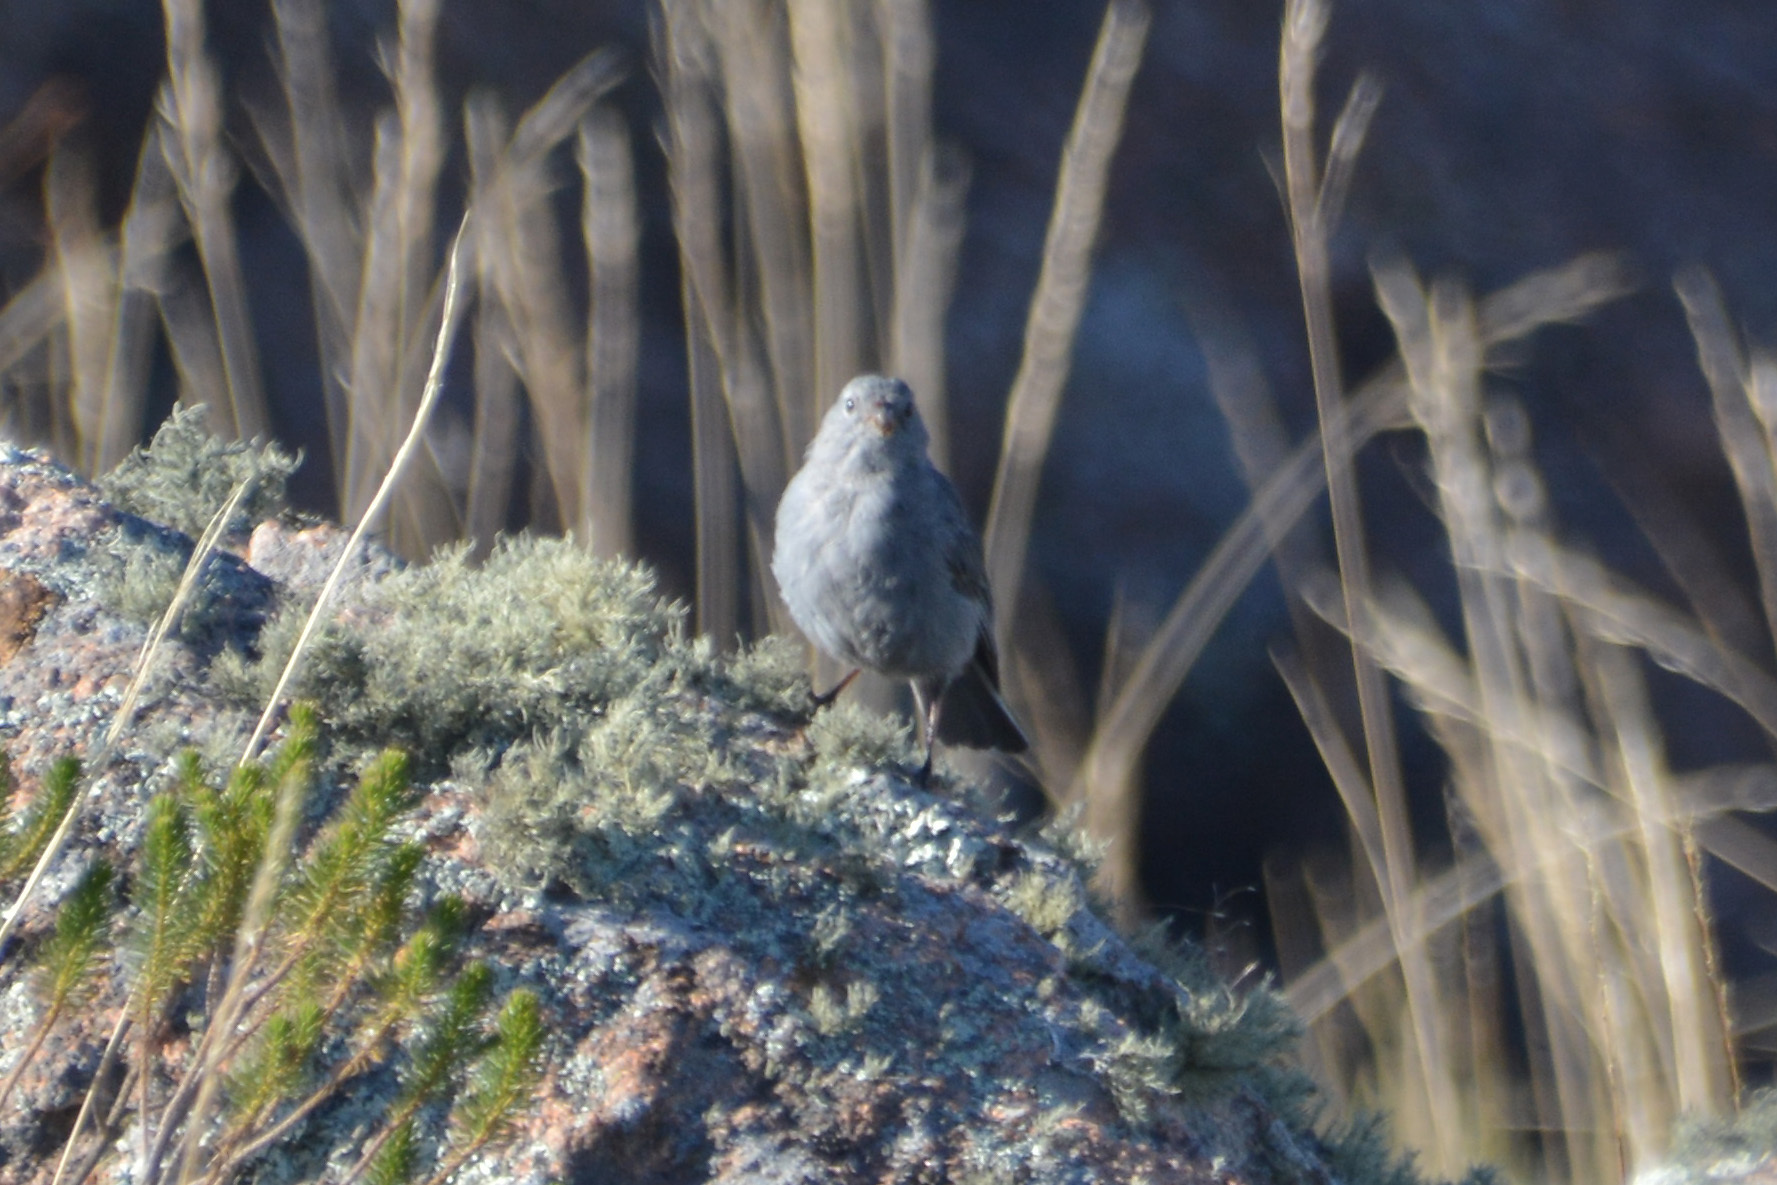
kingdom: Animalia
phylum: Chordata
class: Aves
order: Passeriformes
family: Thraupidae
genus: Catamenia
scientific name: Catamenia inornata
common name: Plain-colored seedeater
